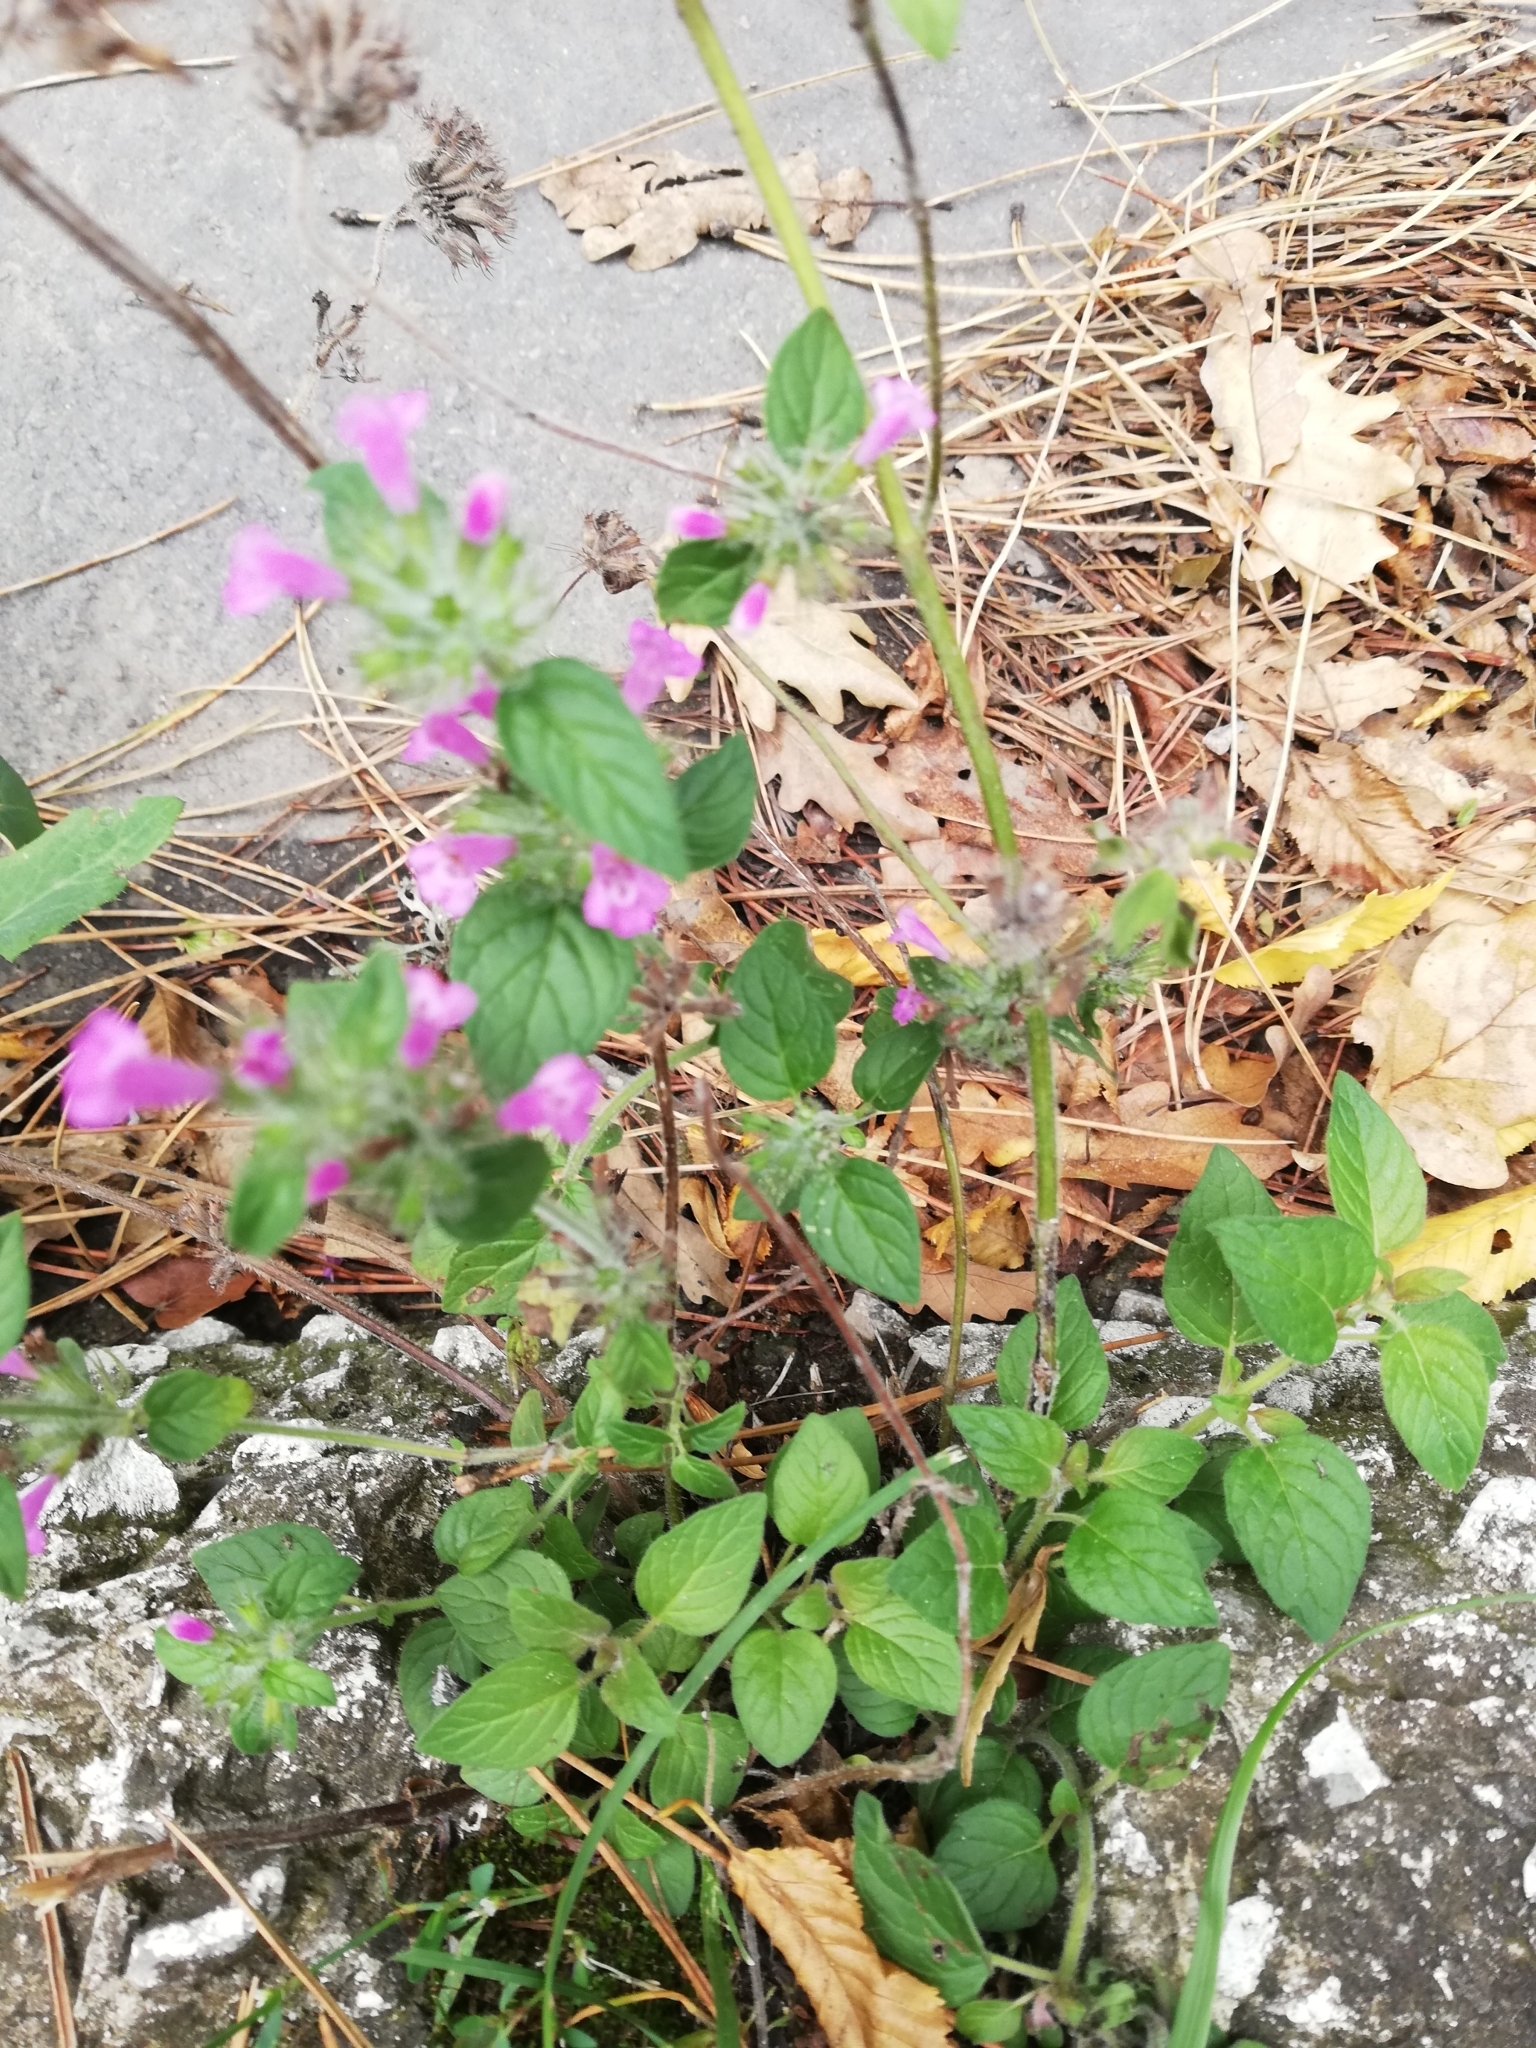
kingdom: Plantae
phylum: Tracheophyta
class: Magnoliopsida
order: Lamiales
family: Lamiaceae
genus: Clinopodium
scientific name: Clinopodium caucasicum
